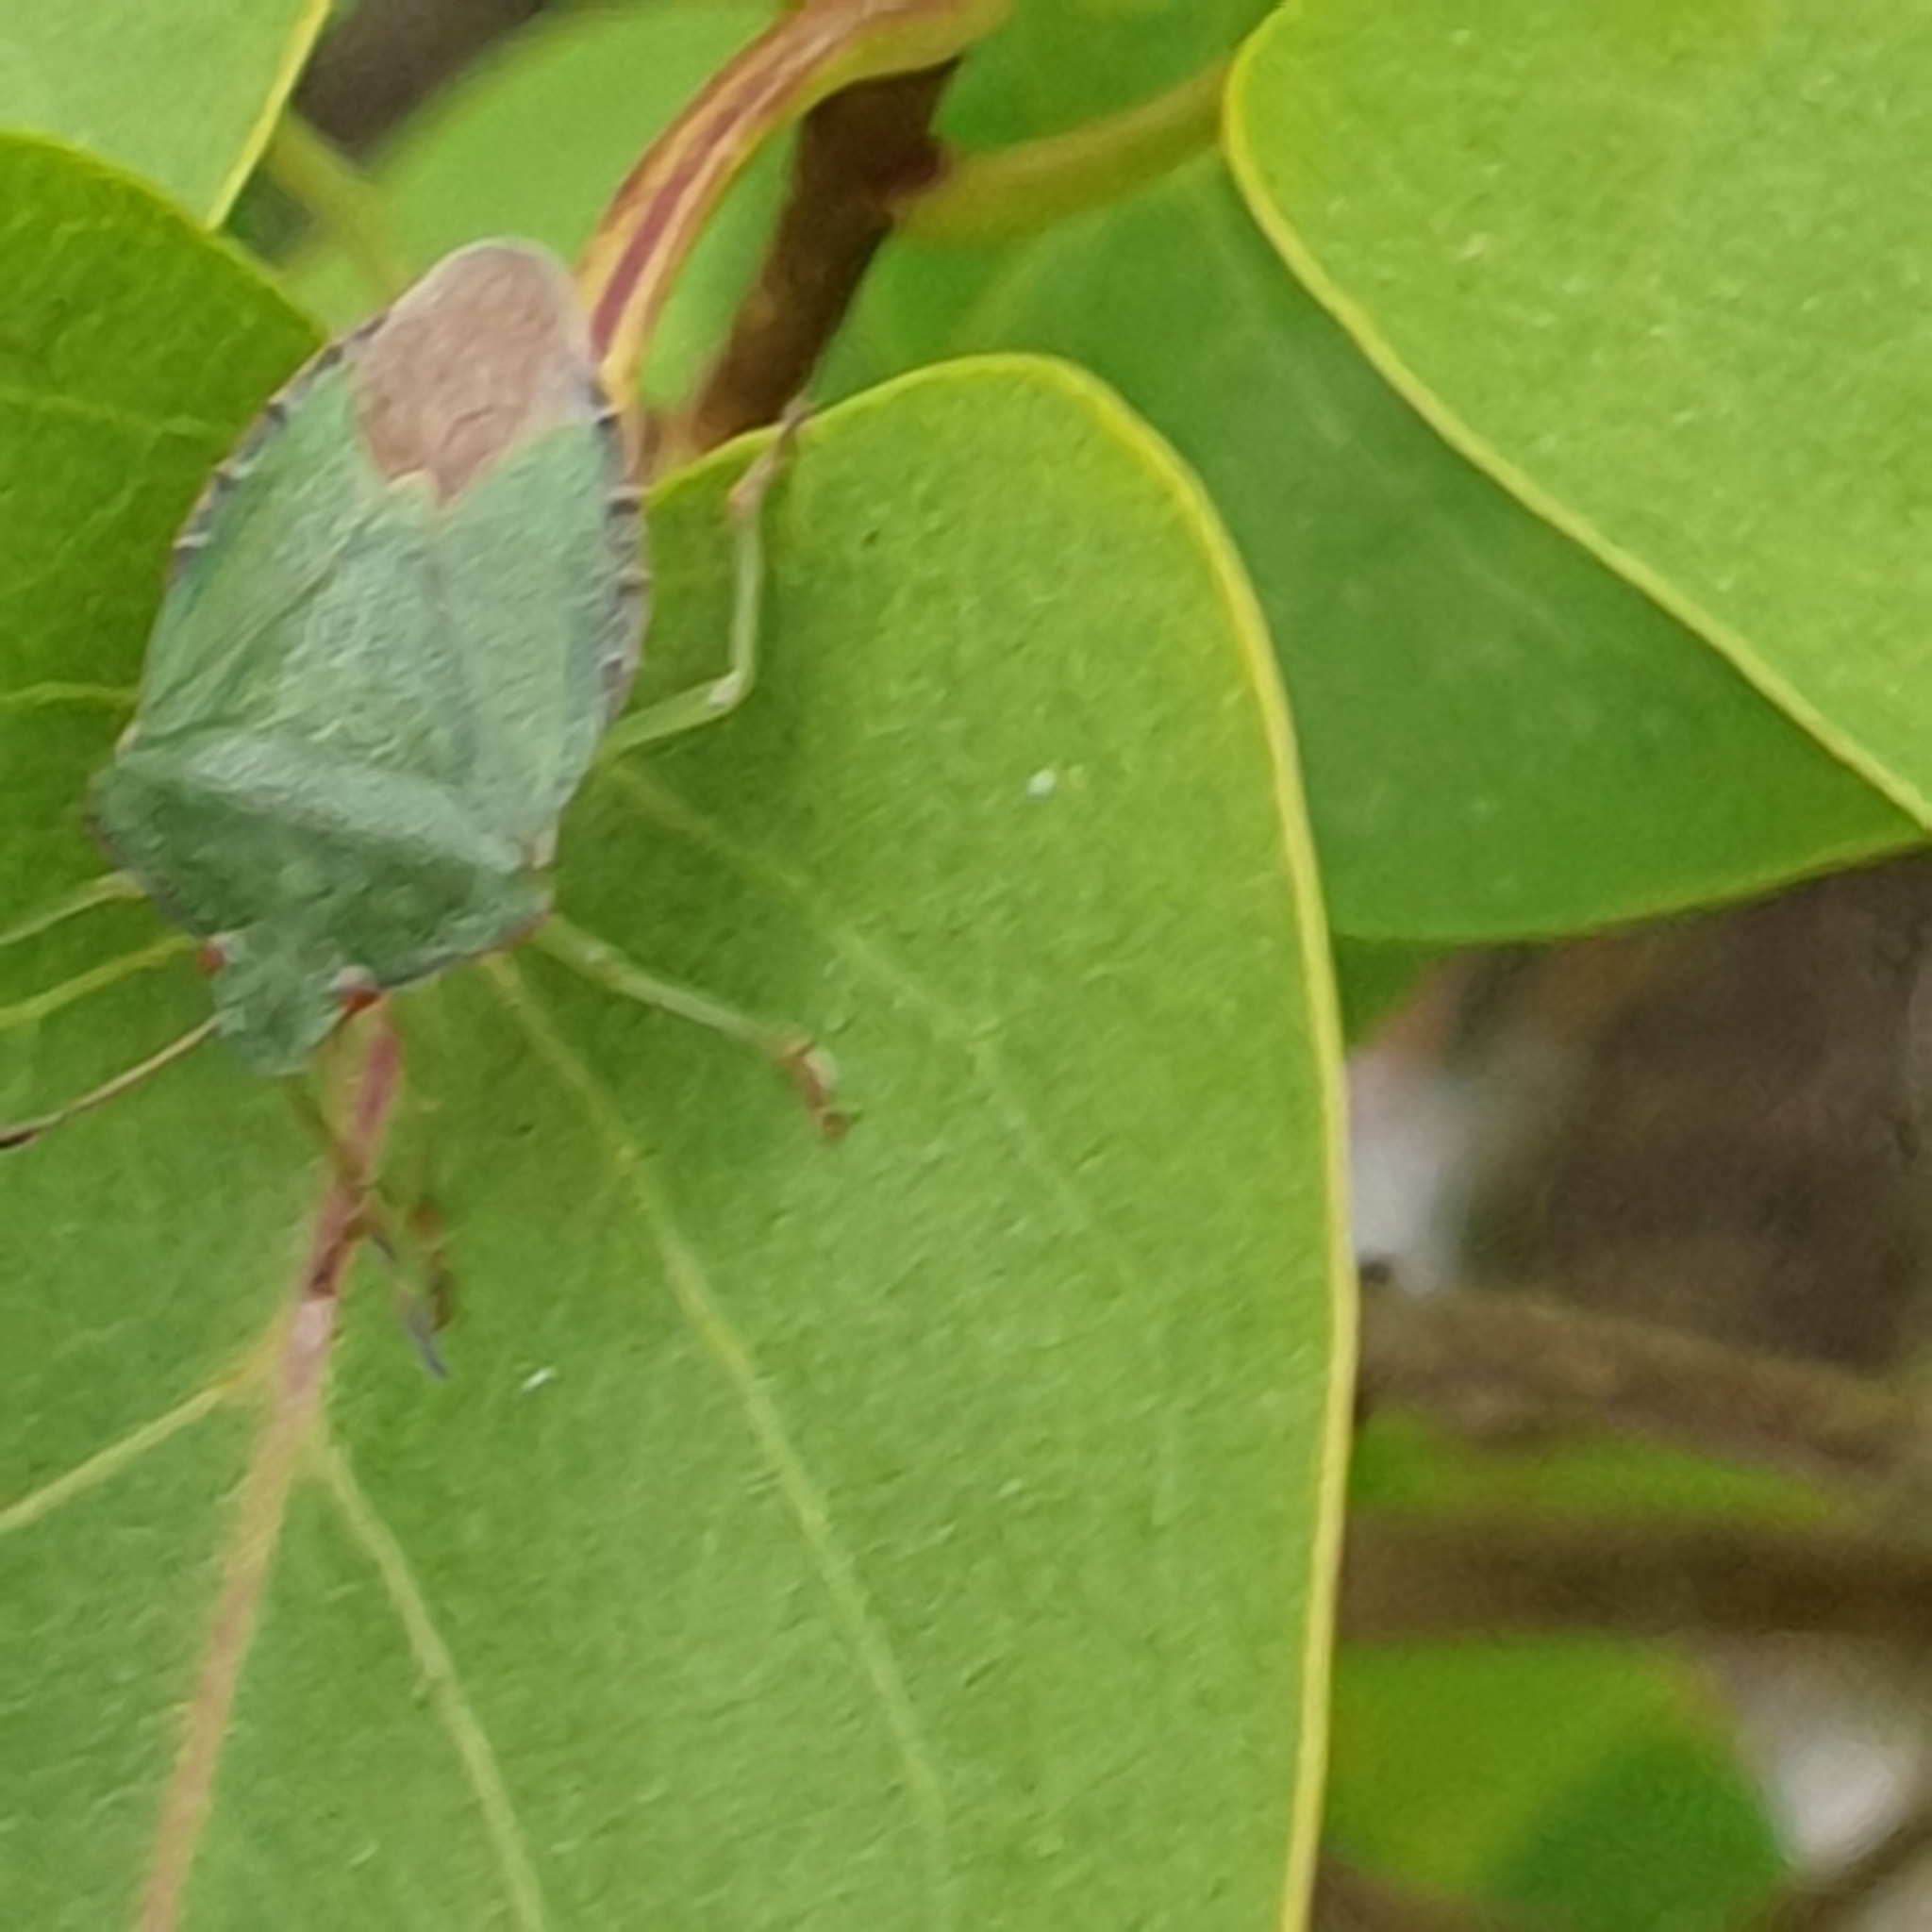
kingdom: Animalia
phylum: Arthropoda
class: Insecta
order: Hemiptera
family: Pentatomidae
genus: Palomena
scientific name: Palomena prasina
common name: Green shieldbug
